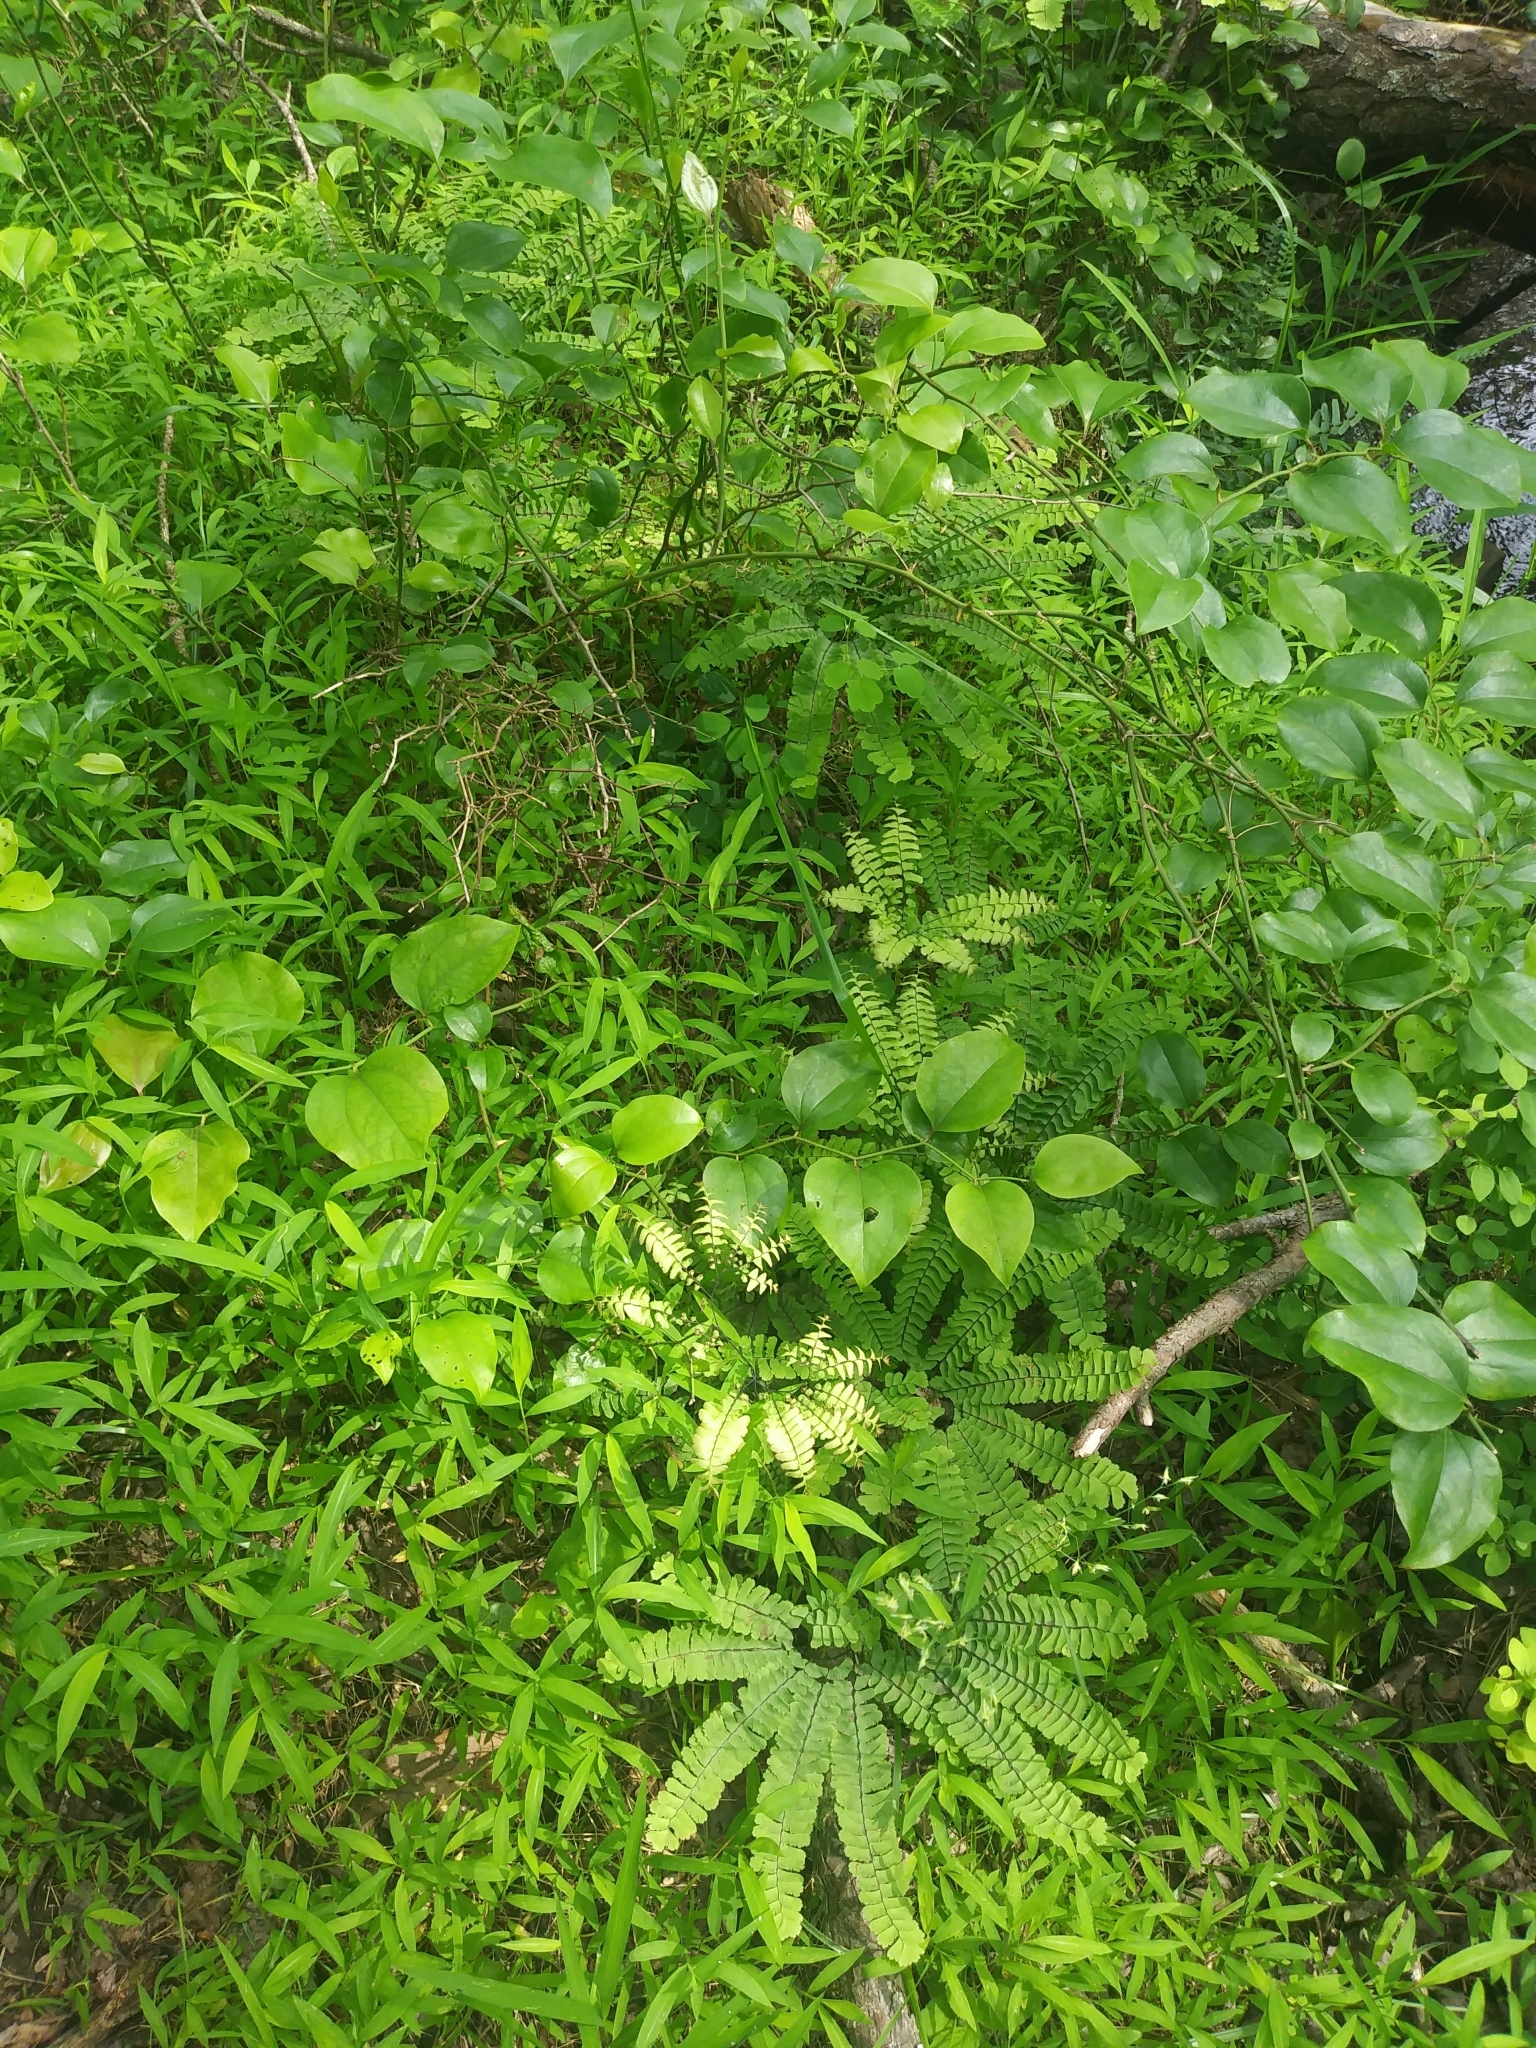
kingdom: Plantae
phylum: Tracheophyta
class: Polypodiopsida
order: Polypodiales
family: Pteridaceae
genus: Adiantum
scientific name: Adiantum pedatum
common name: Five-finger fern
